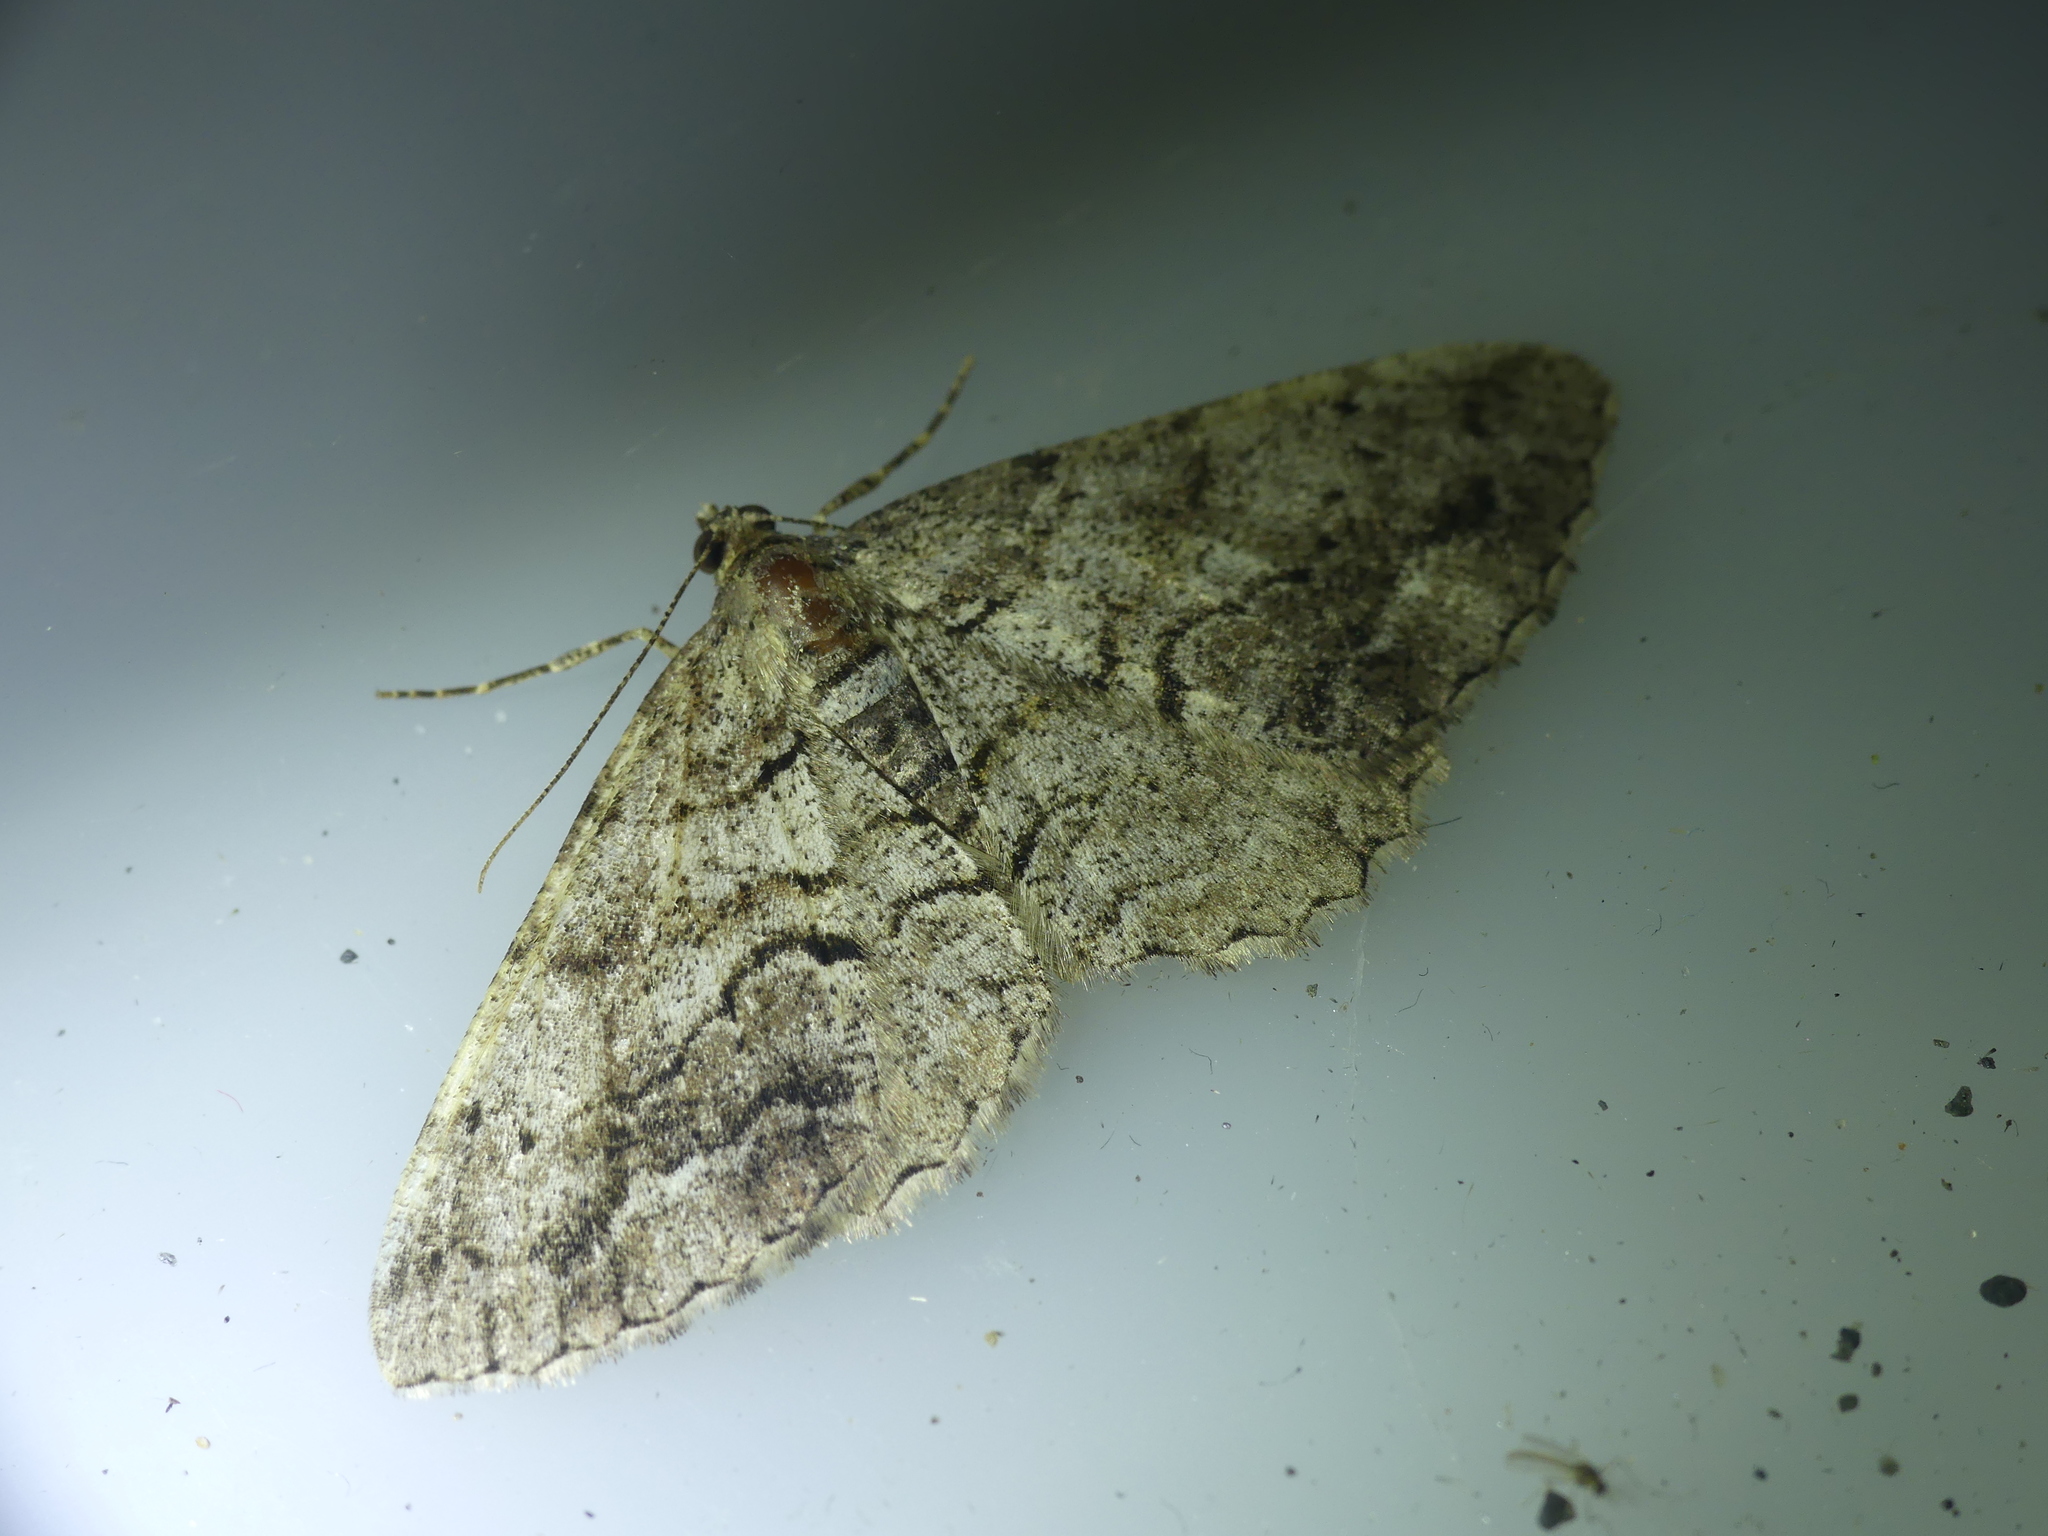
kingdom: Animalia
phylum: Arthropoda
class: Insecta
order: Lepidoptera
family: Geometridae
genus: Peribatodes
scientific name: Peribatodes secundaria
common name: Feathered beauty
